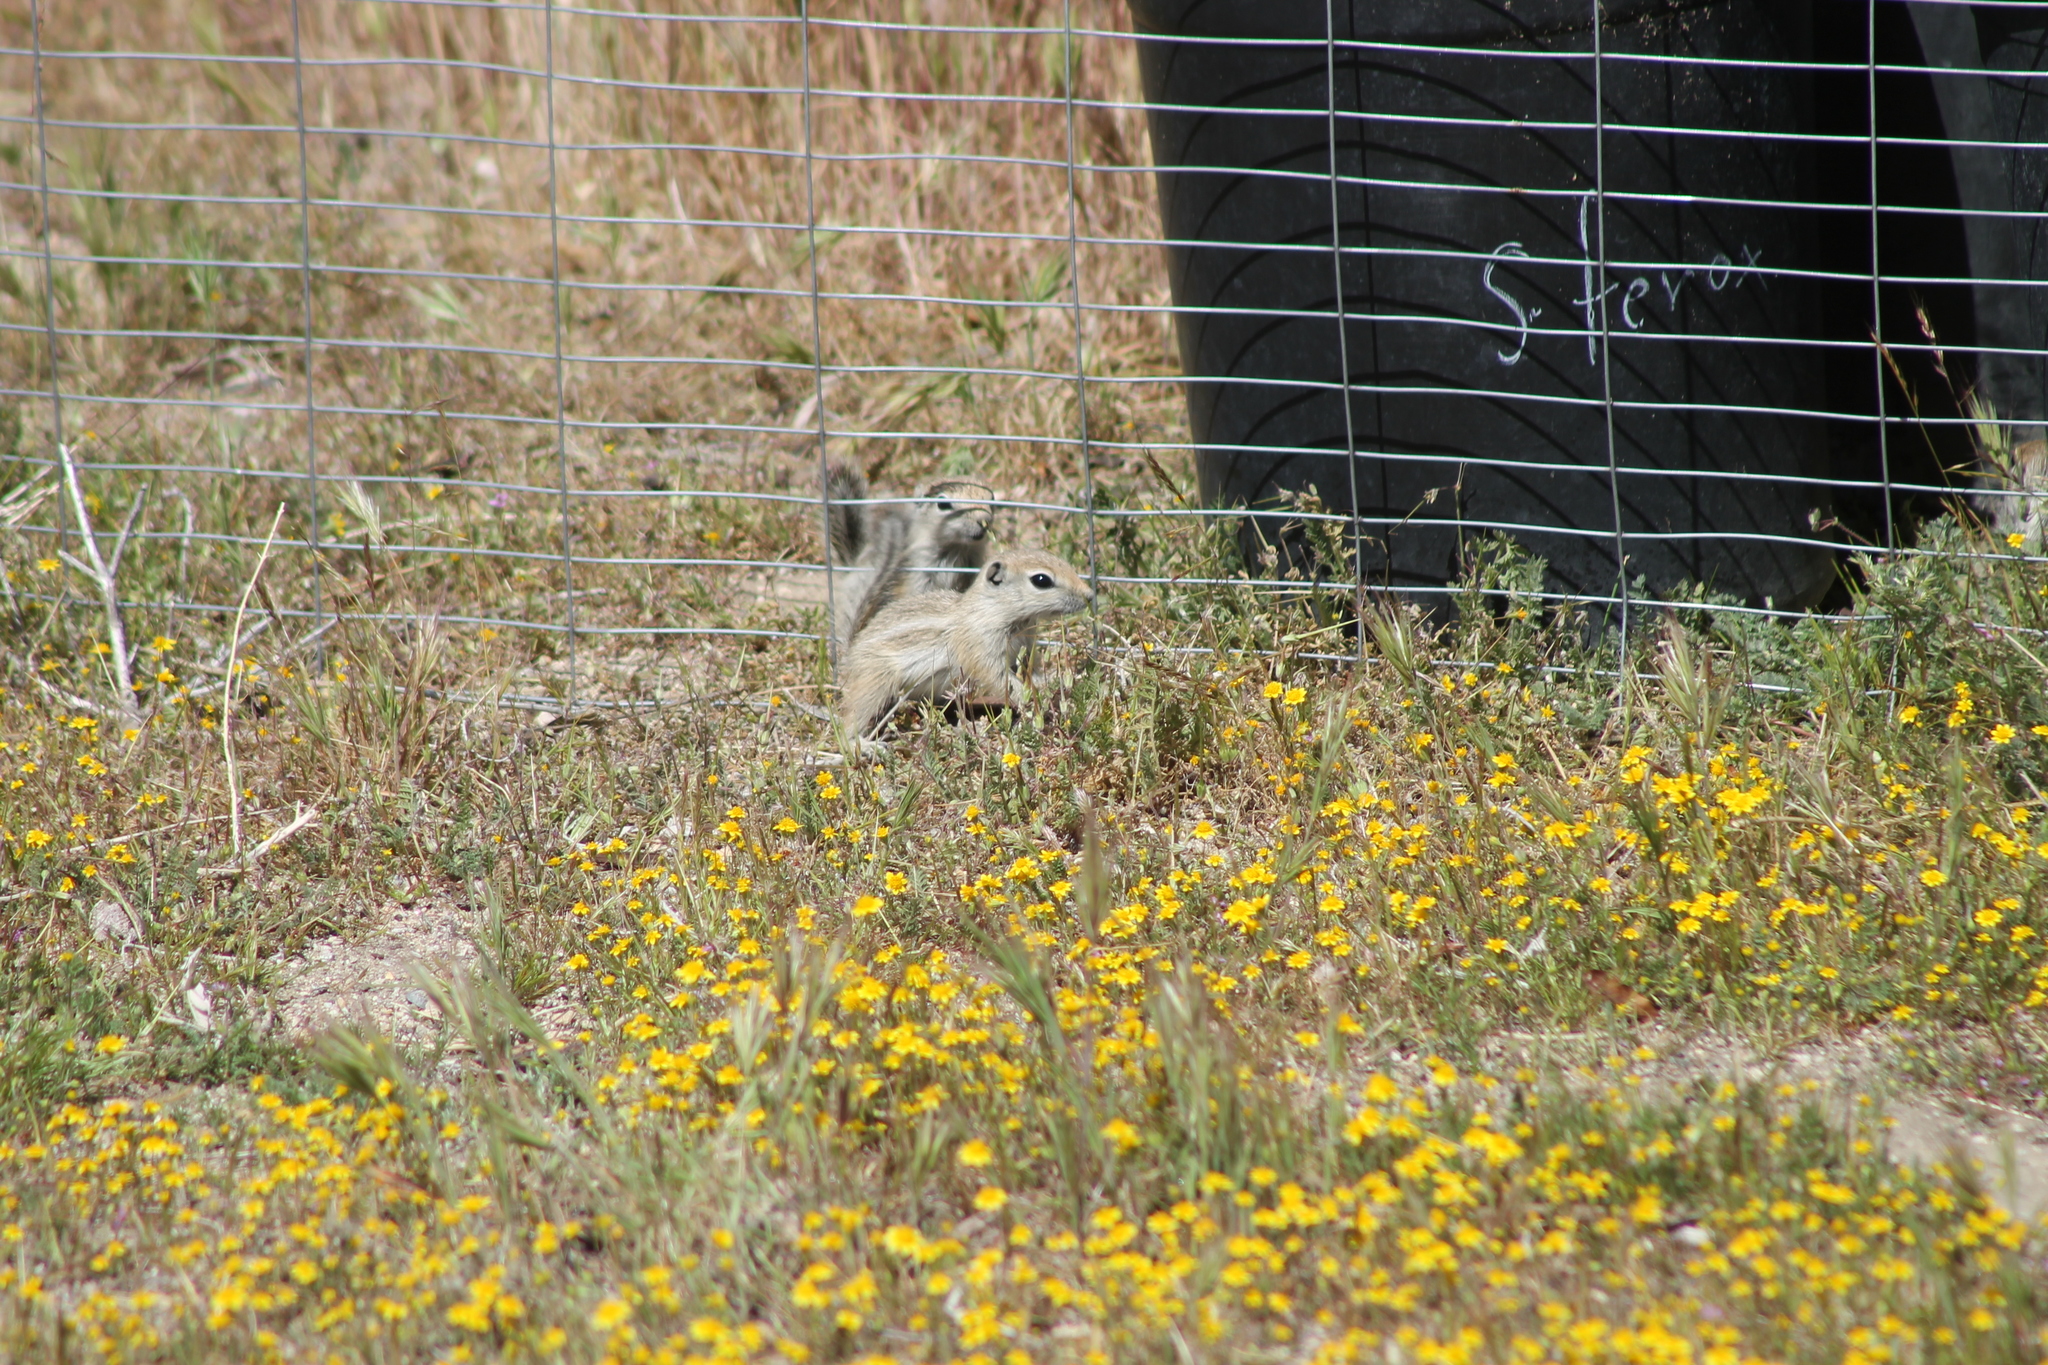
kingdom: Animalia
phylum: Chordata
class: Mammalia
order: Rodentia
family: Sciuridae
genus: Ammospermophilus
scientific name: Ammospermophilus nelsoni
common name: Nelson's antelope squirrel
